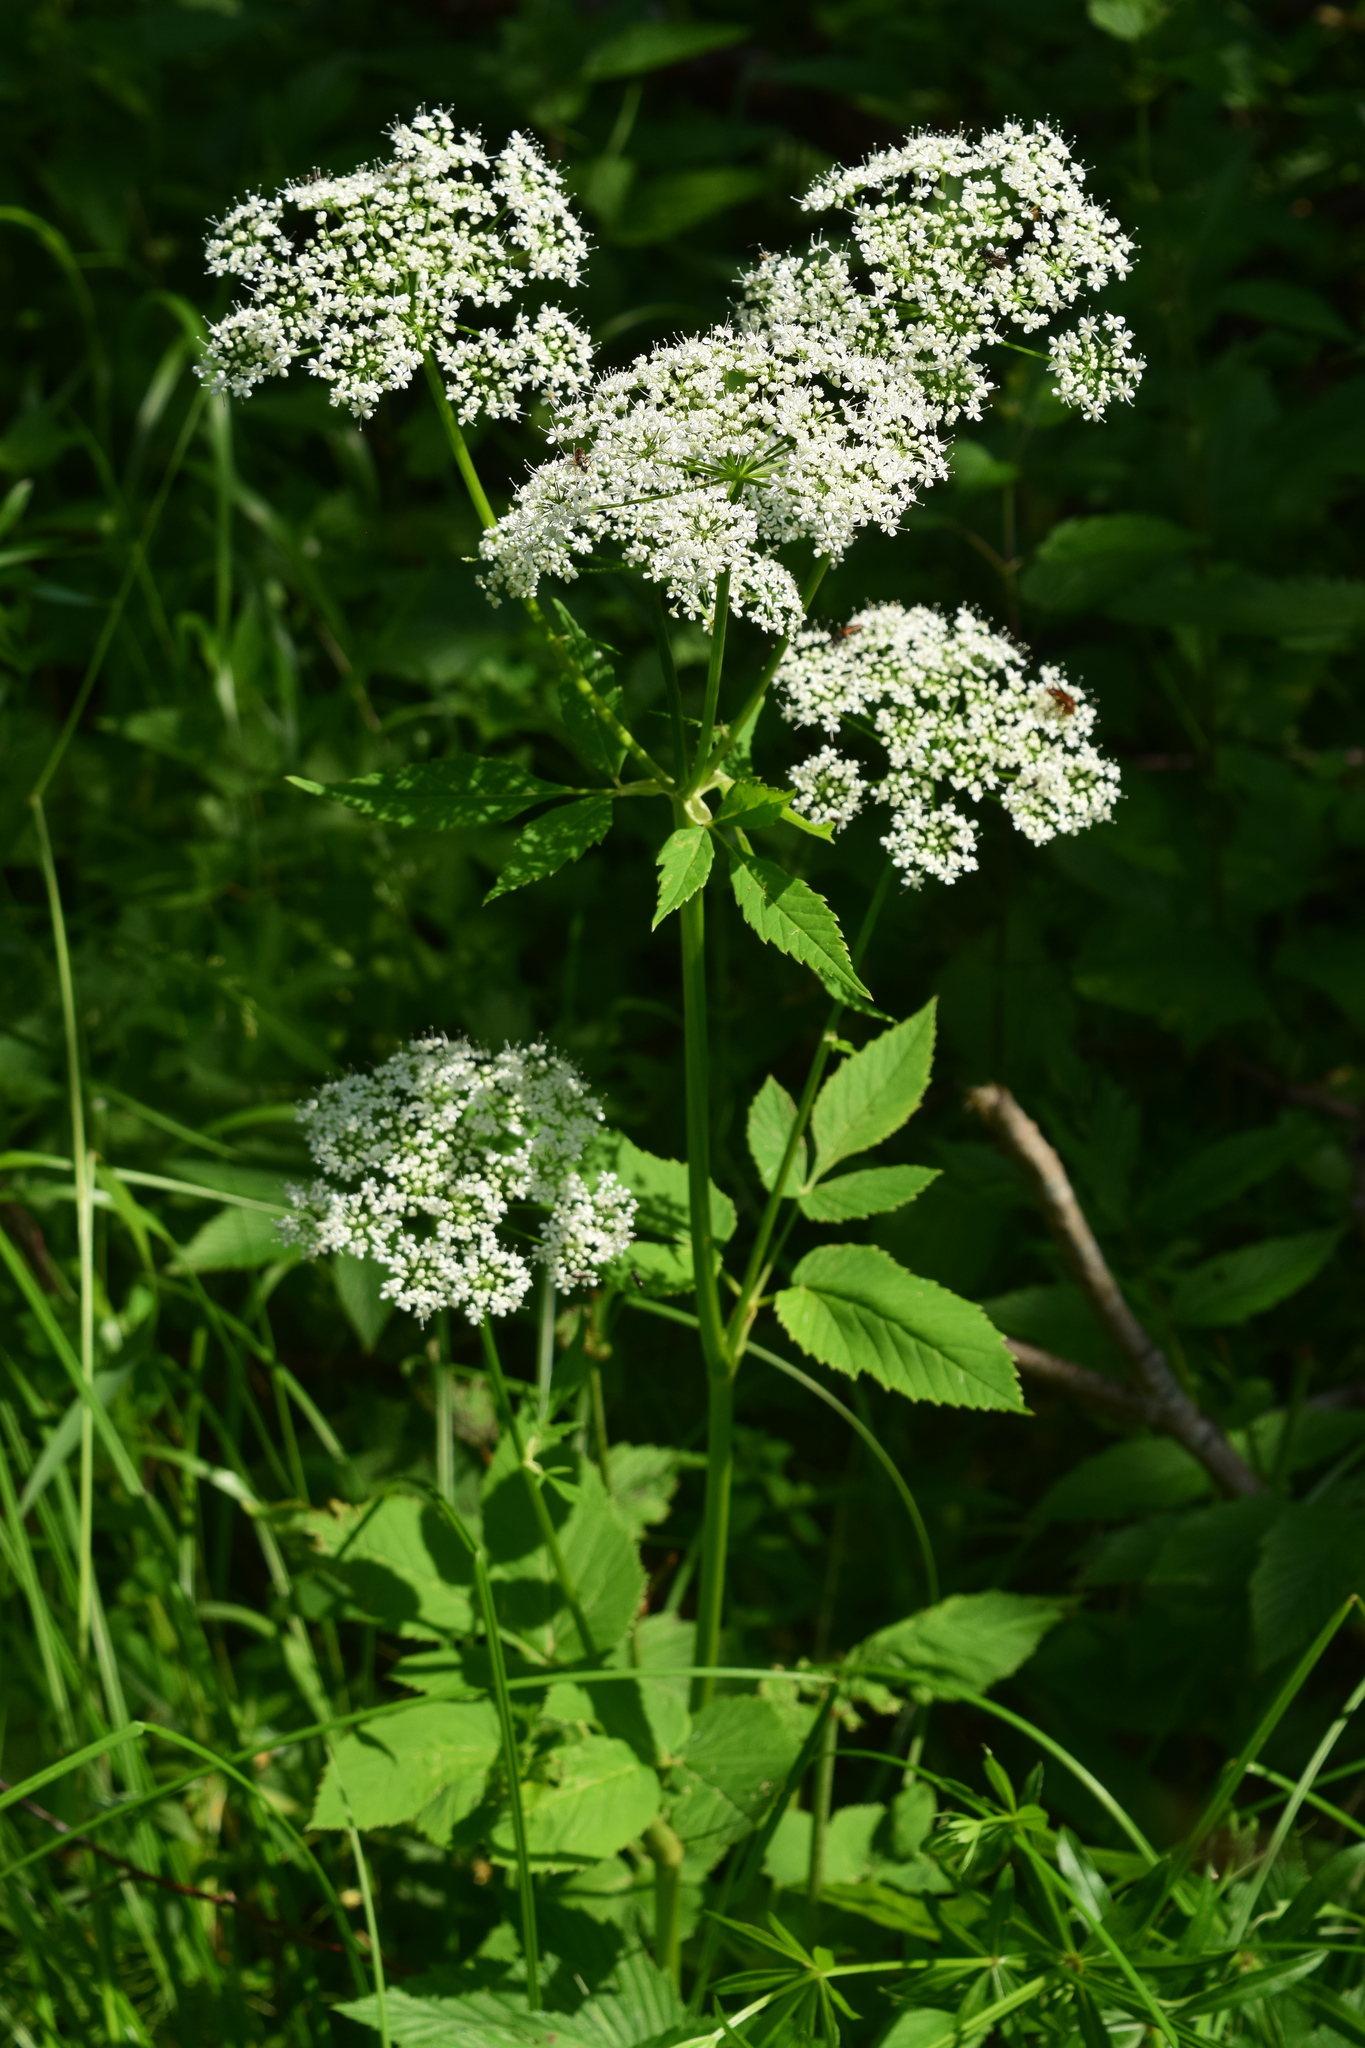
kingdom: Plantae
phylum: Tracheophyta
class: Magnoliopsida
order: Apiales
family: Apiaceae
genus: Aegopodium
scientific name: Aegopodium podagraria
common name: Ground-elder
